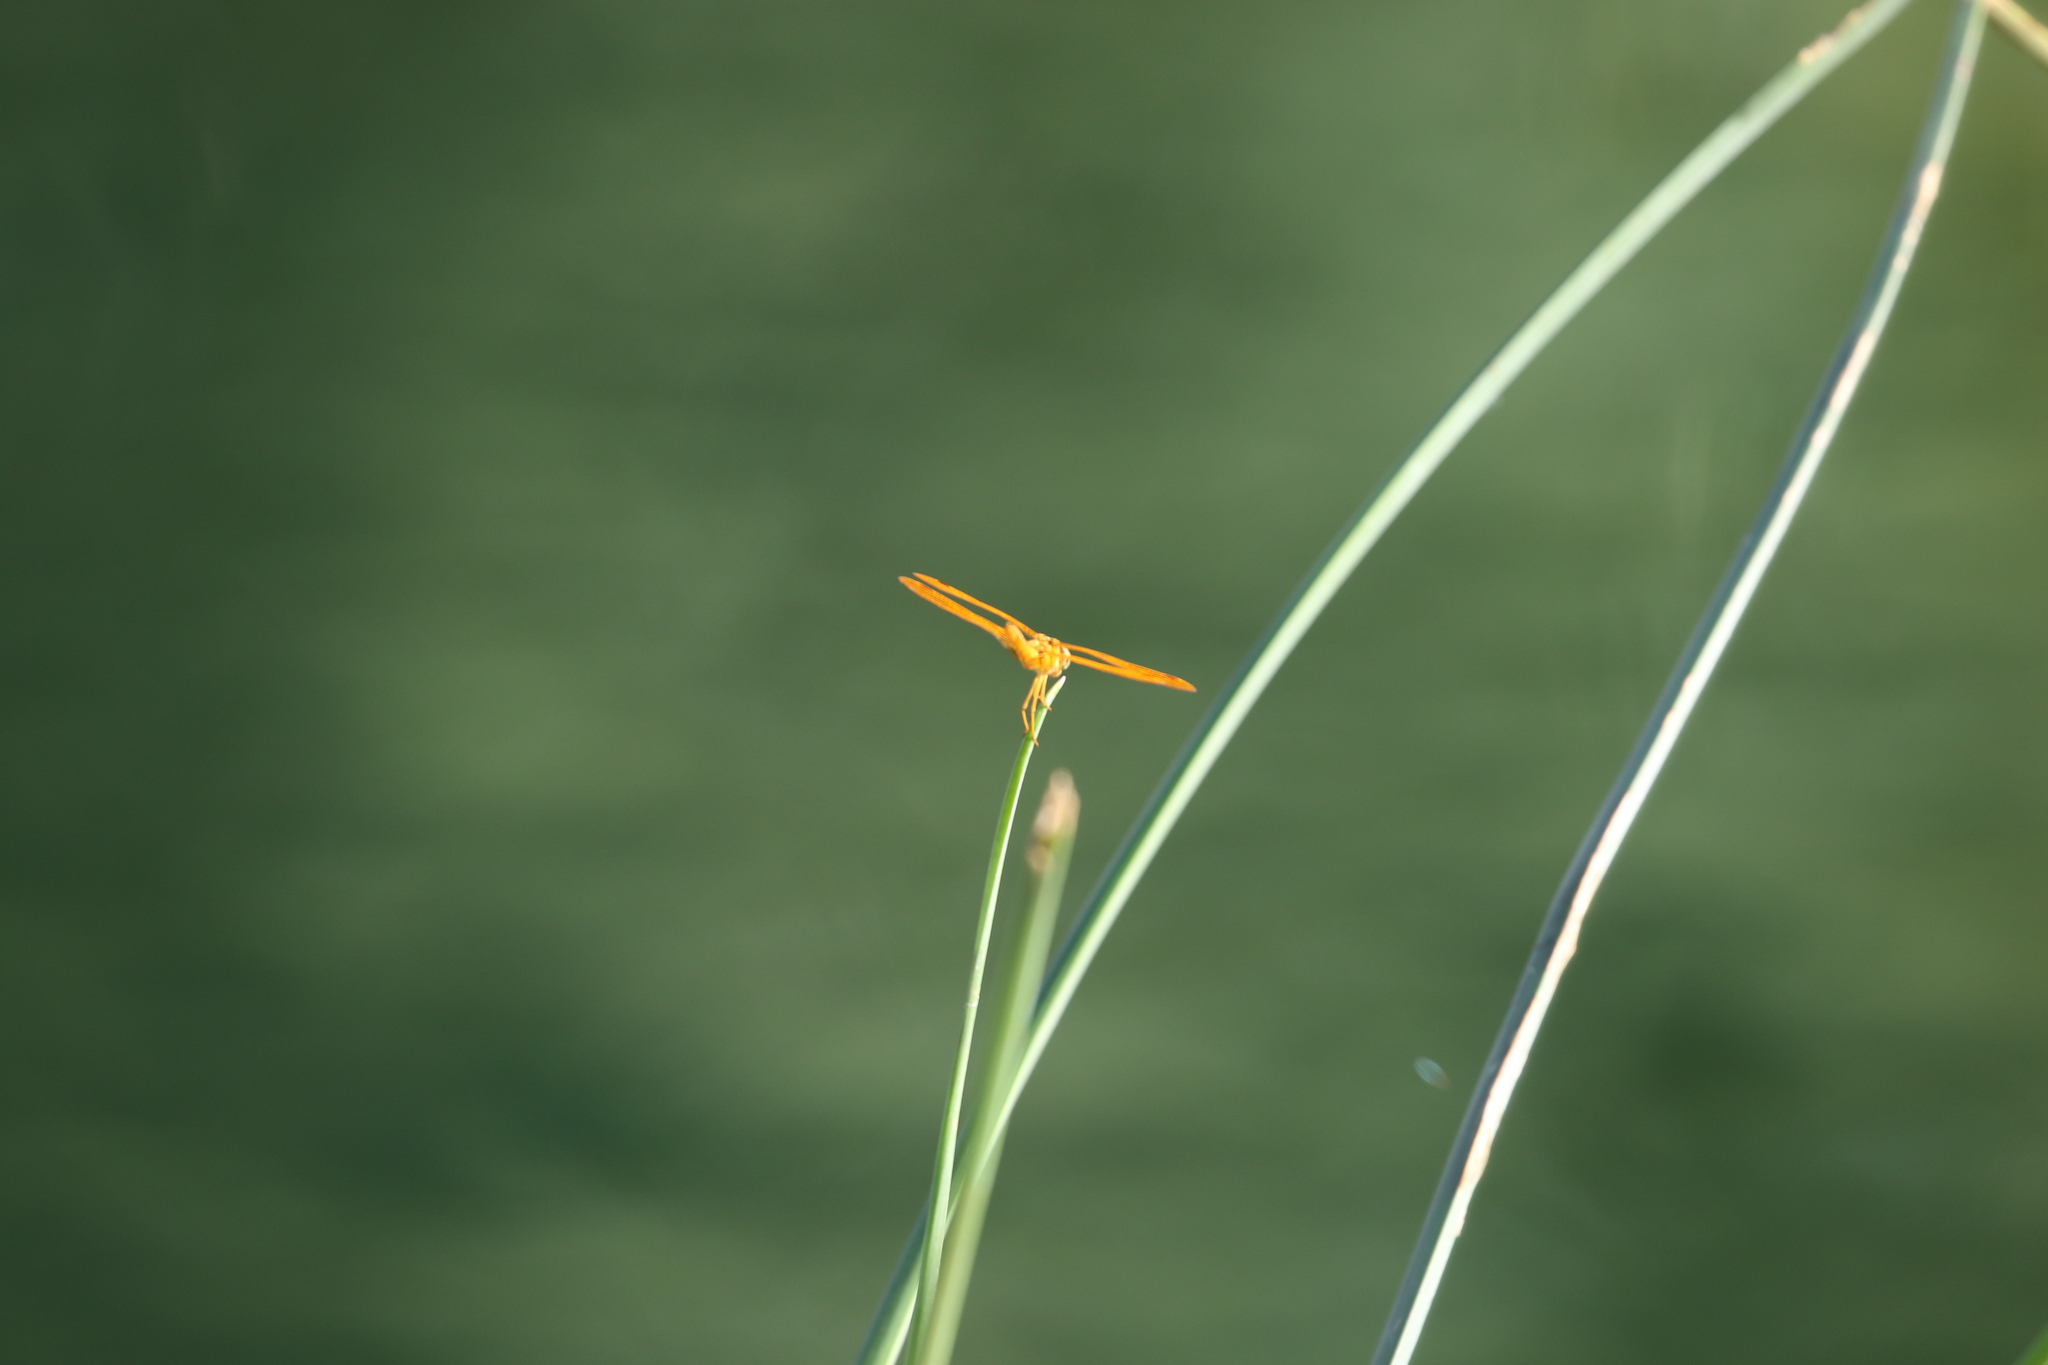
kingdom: Animalia
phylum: Arthropoda
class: Insecta
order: Odonata
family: Libellulidae
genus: Perithemis
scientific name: Perithemis intensa
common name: Mexican amberwing
